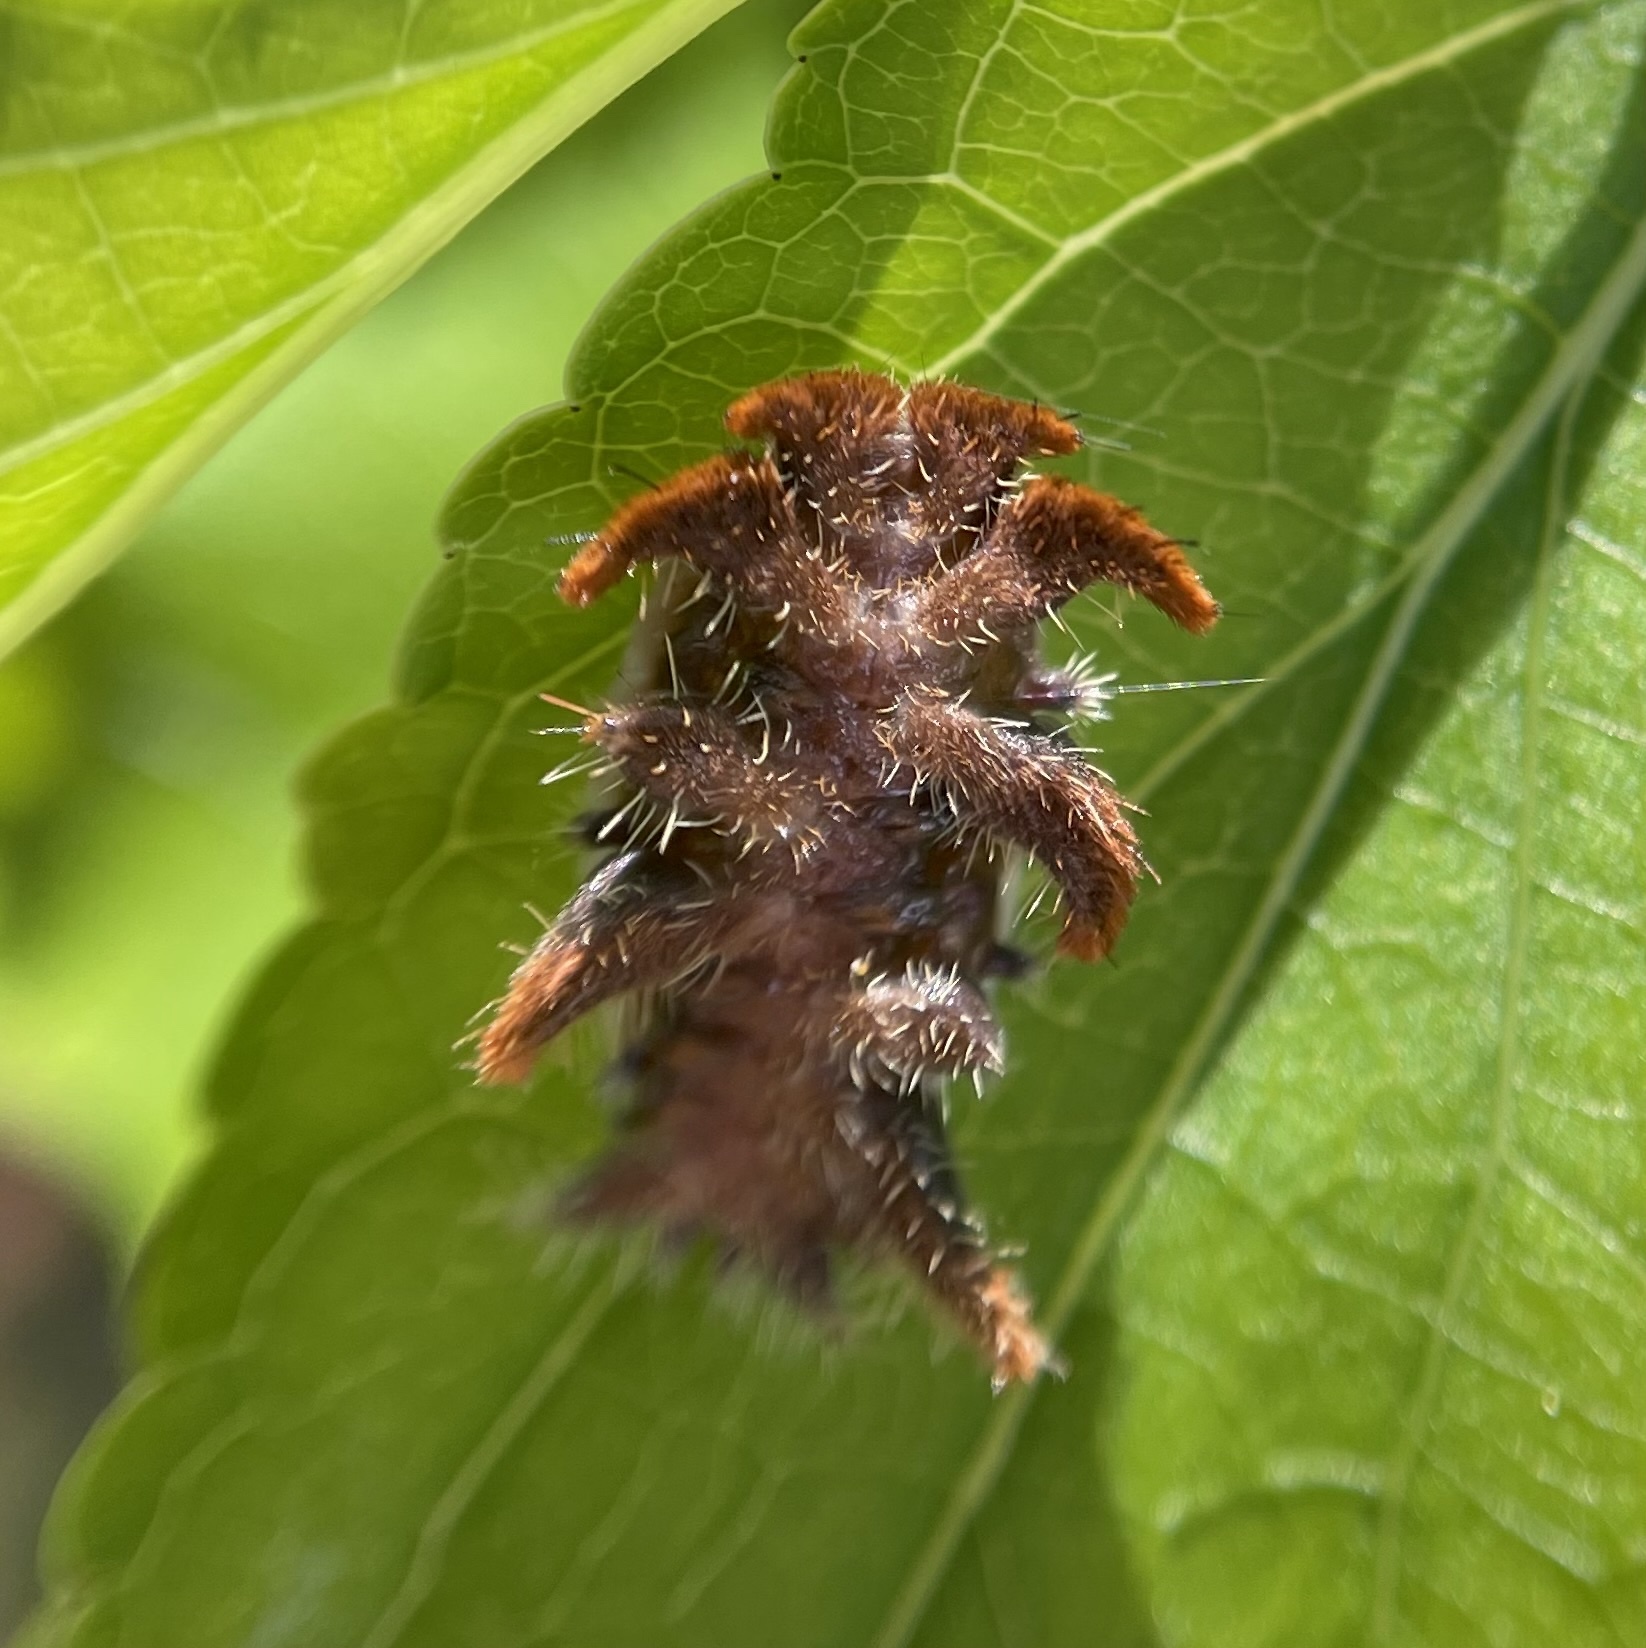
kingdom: Animalia
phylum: Arthropoda
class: Insecta
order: Lepidoptera
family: Limacodidae
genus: Phobetron
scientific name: Phobetron pithecium
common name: Hag moth
